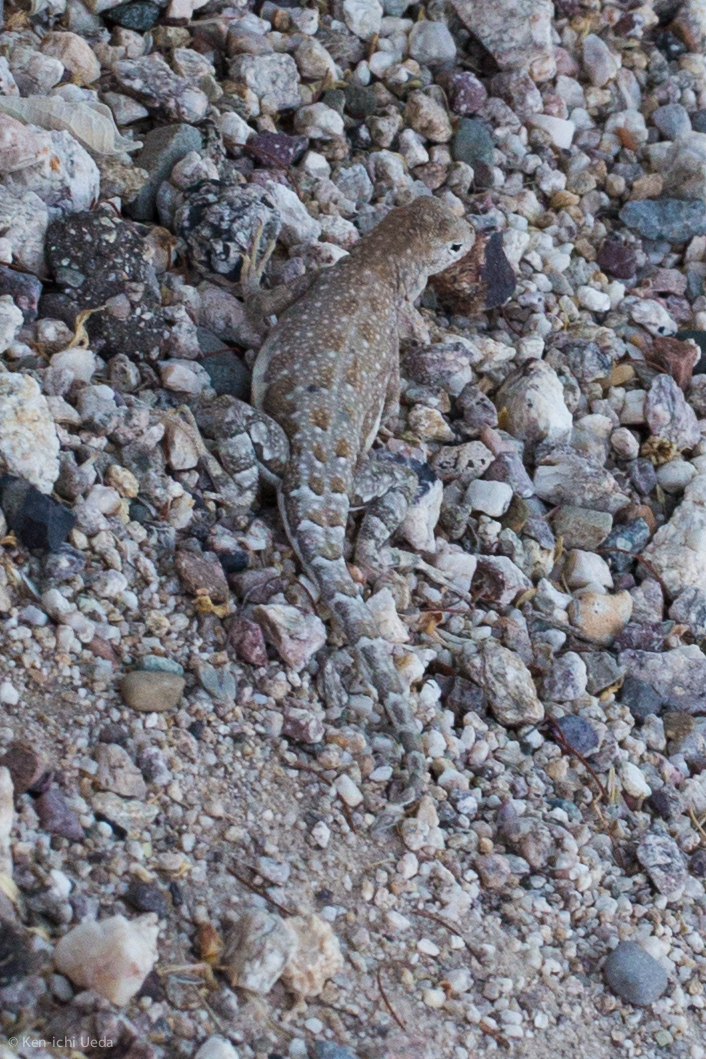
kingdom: Animalia
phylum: Chordata
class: Squamata
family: Phrynosomatidae
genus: Cophosaurus
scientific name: Cophosaurus texanus
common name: Greater earless lizard
